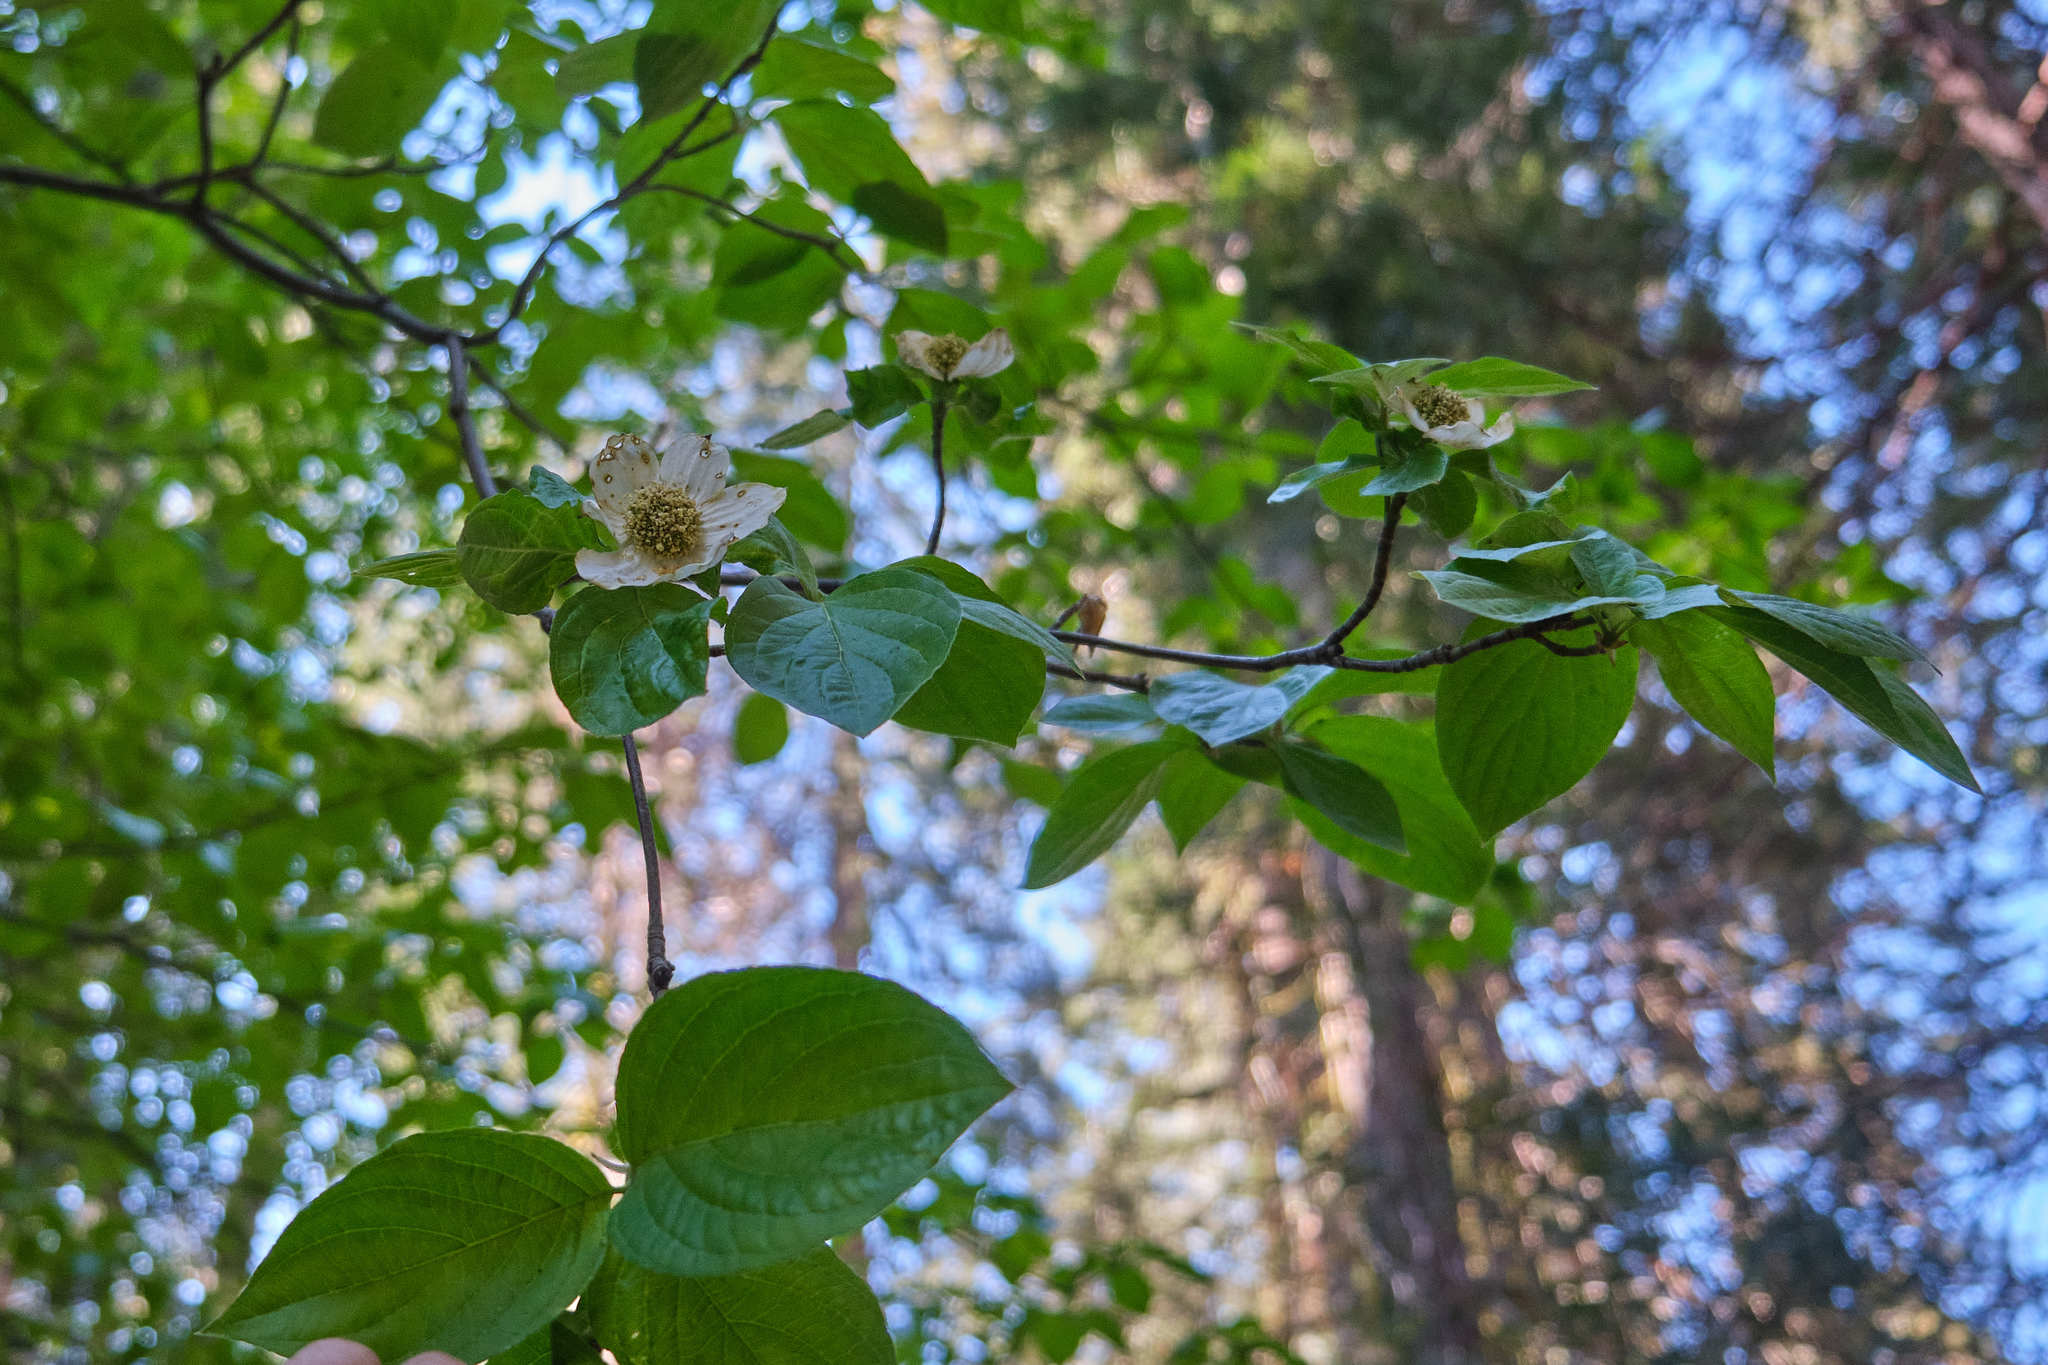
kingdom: Plantae
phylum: Tracheophyta
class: Magnoliopsida
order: Cornales
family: Cornaceae
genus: Cornus
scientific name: Cornus nuttallii
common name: Pacific dogwood
